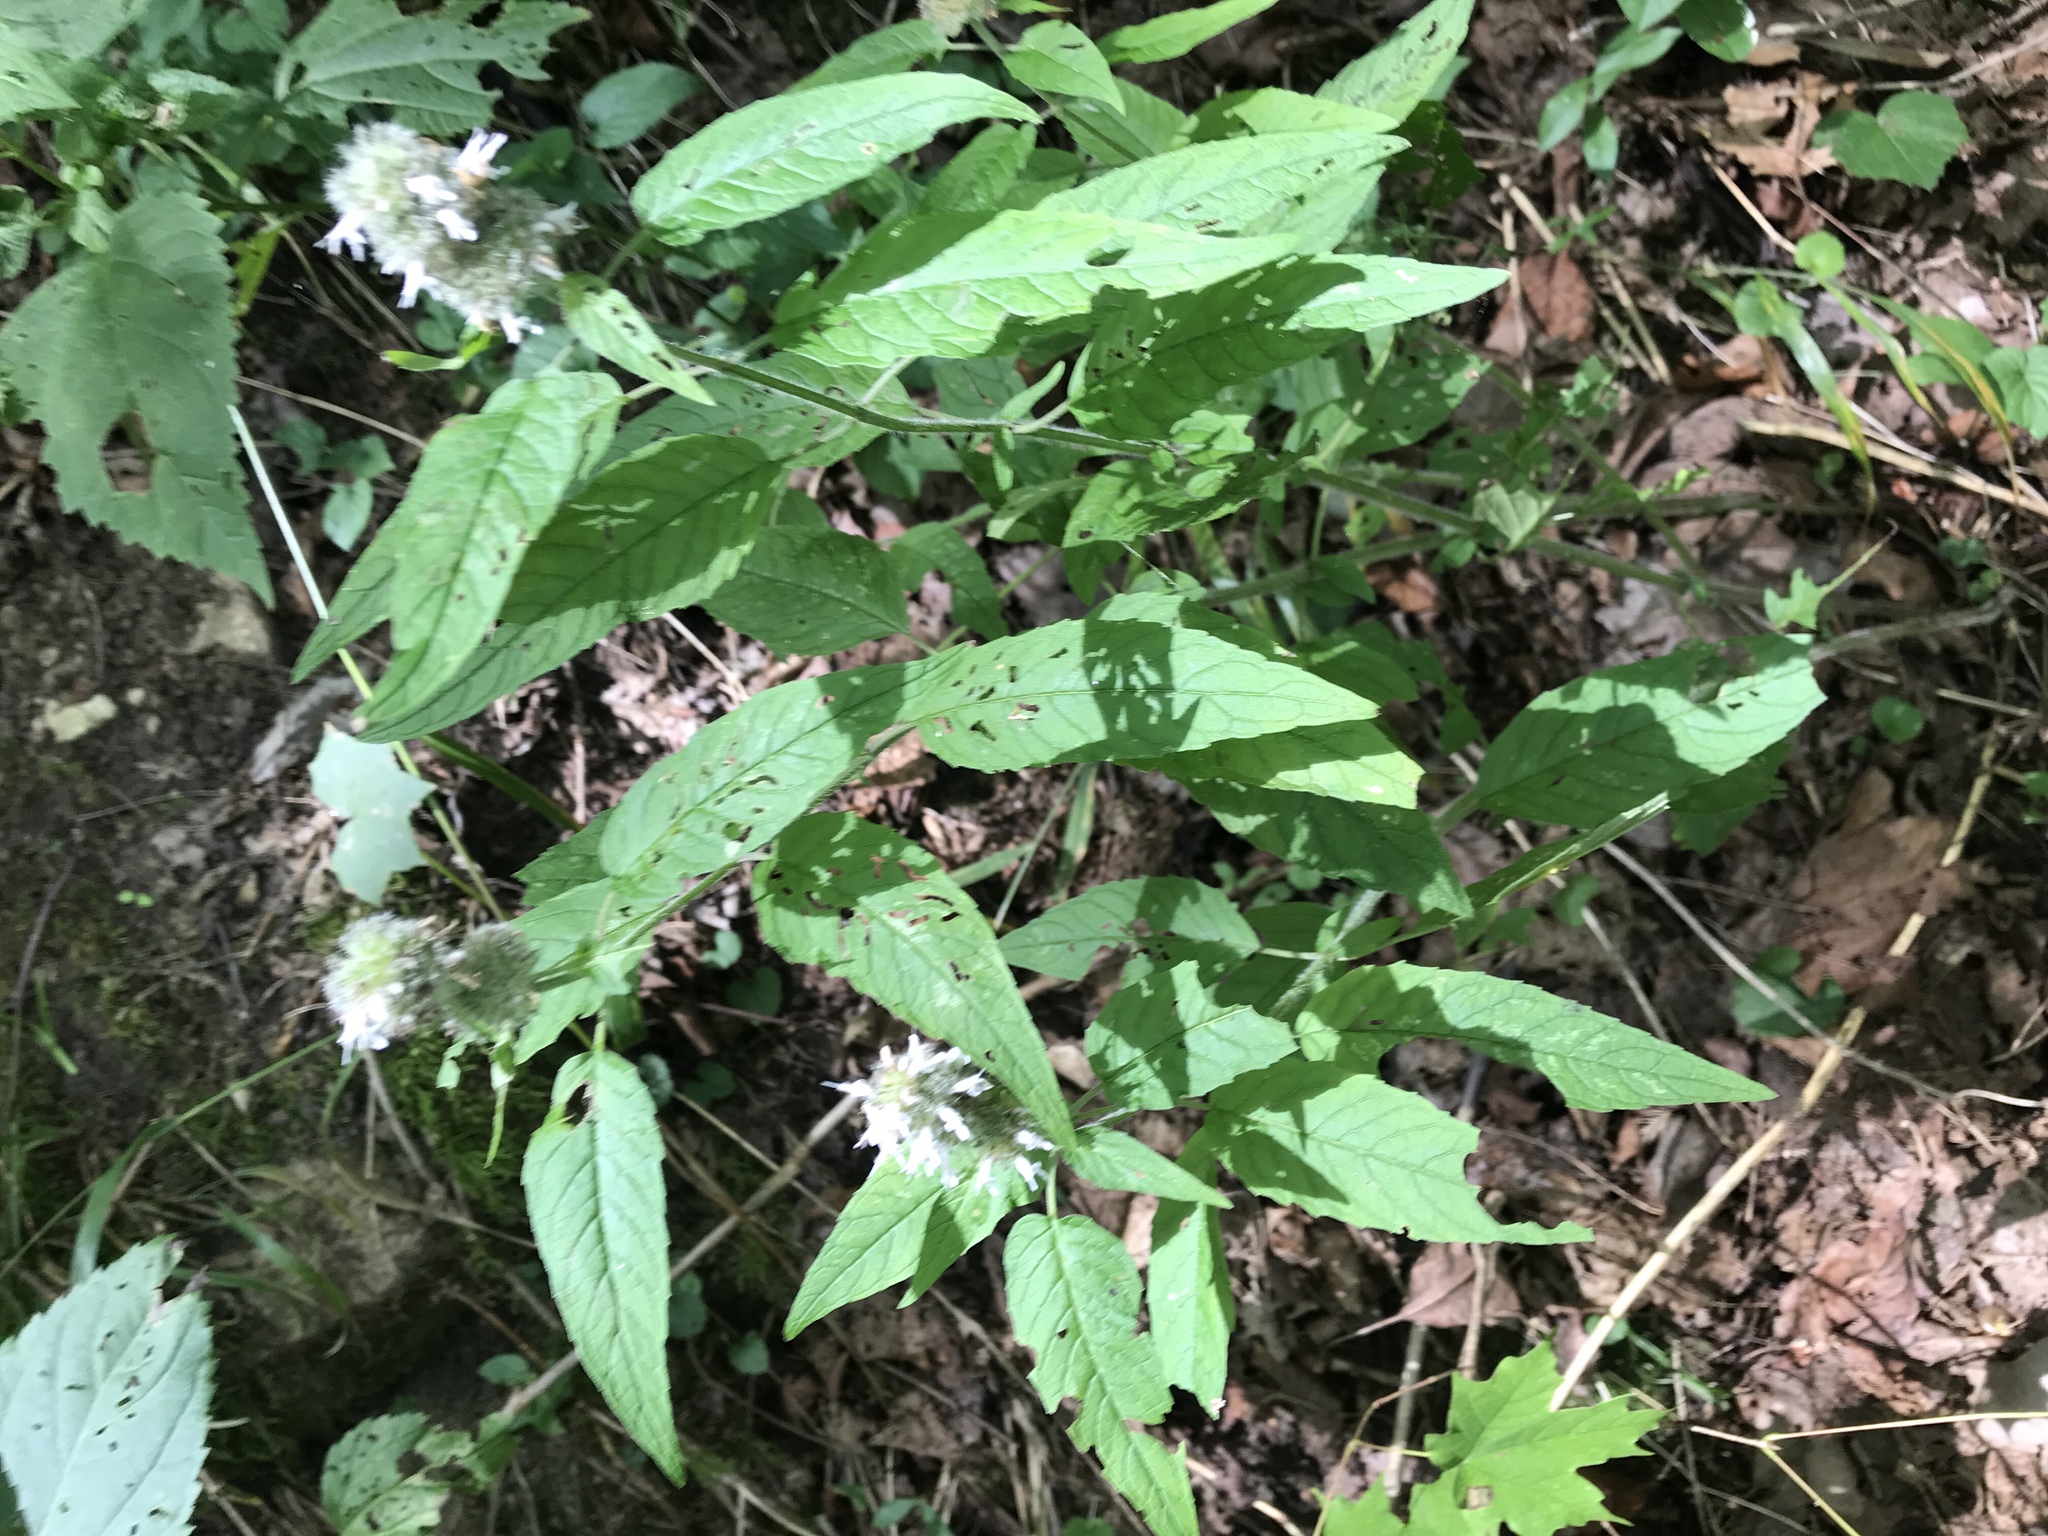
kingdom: Plantae
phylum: Tracheophyta
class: Magnoliopsida
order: Lamiales
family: Lamiaceae
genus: Blephilia
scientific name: Blephilia hirsuta
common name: Hairy blephilia
